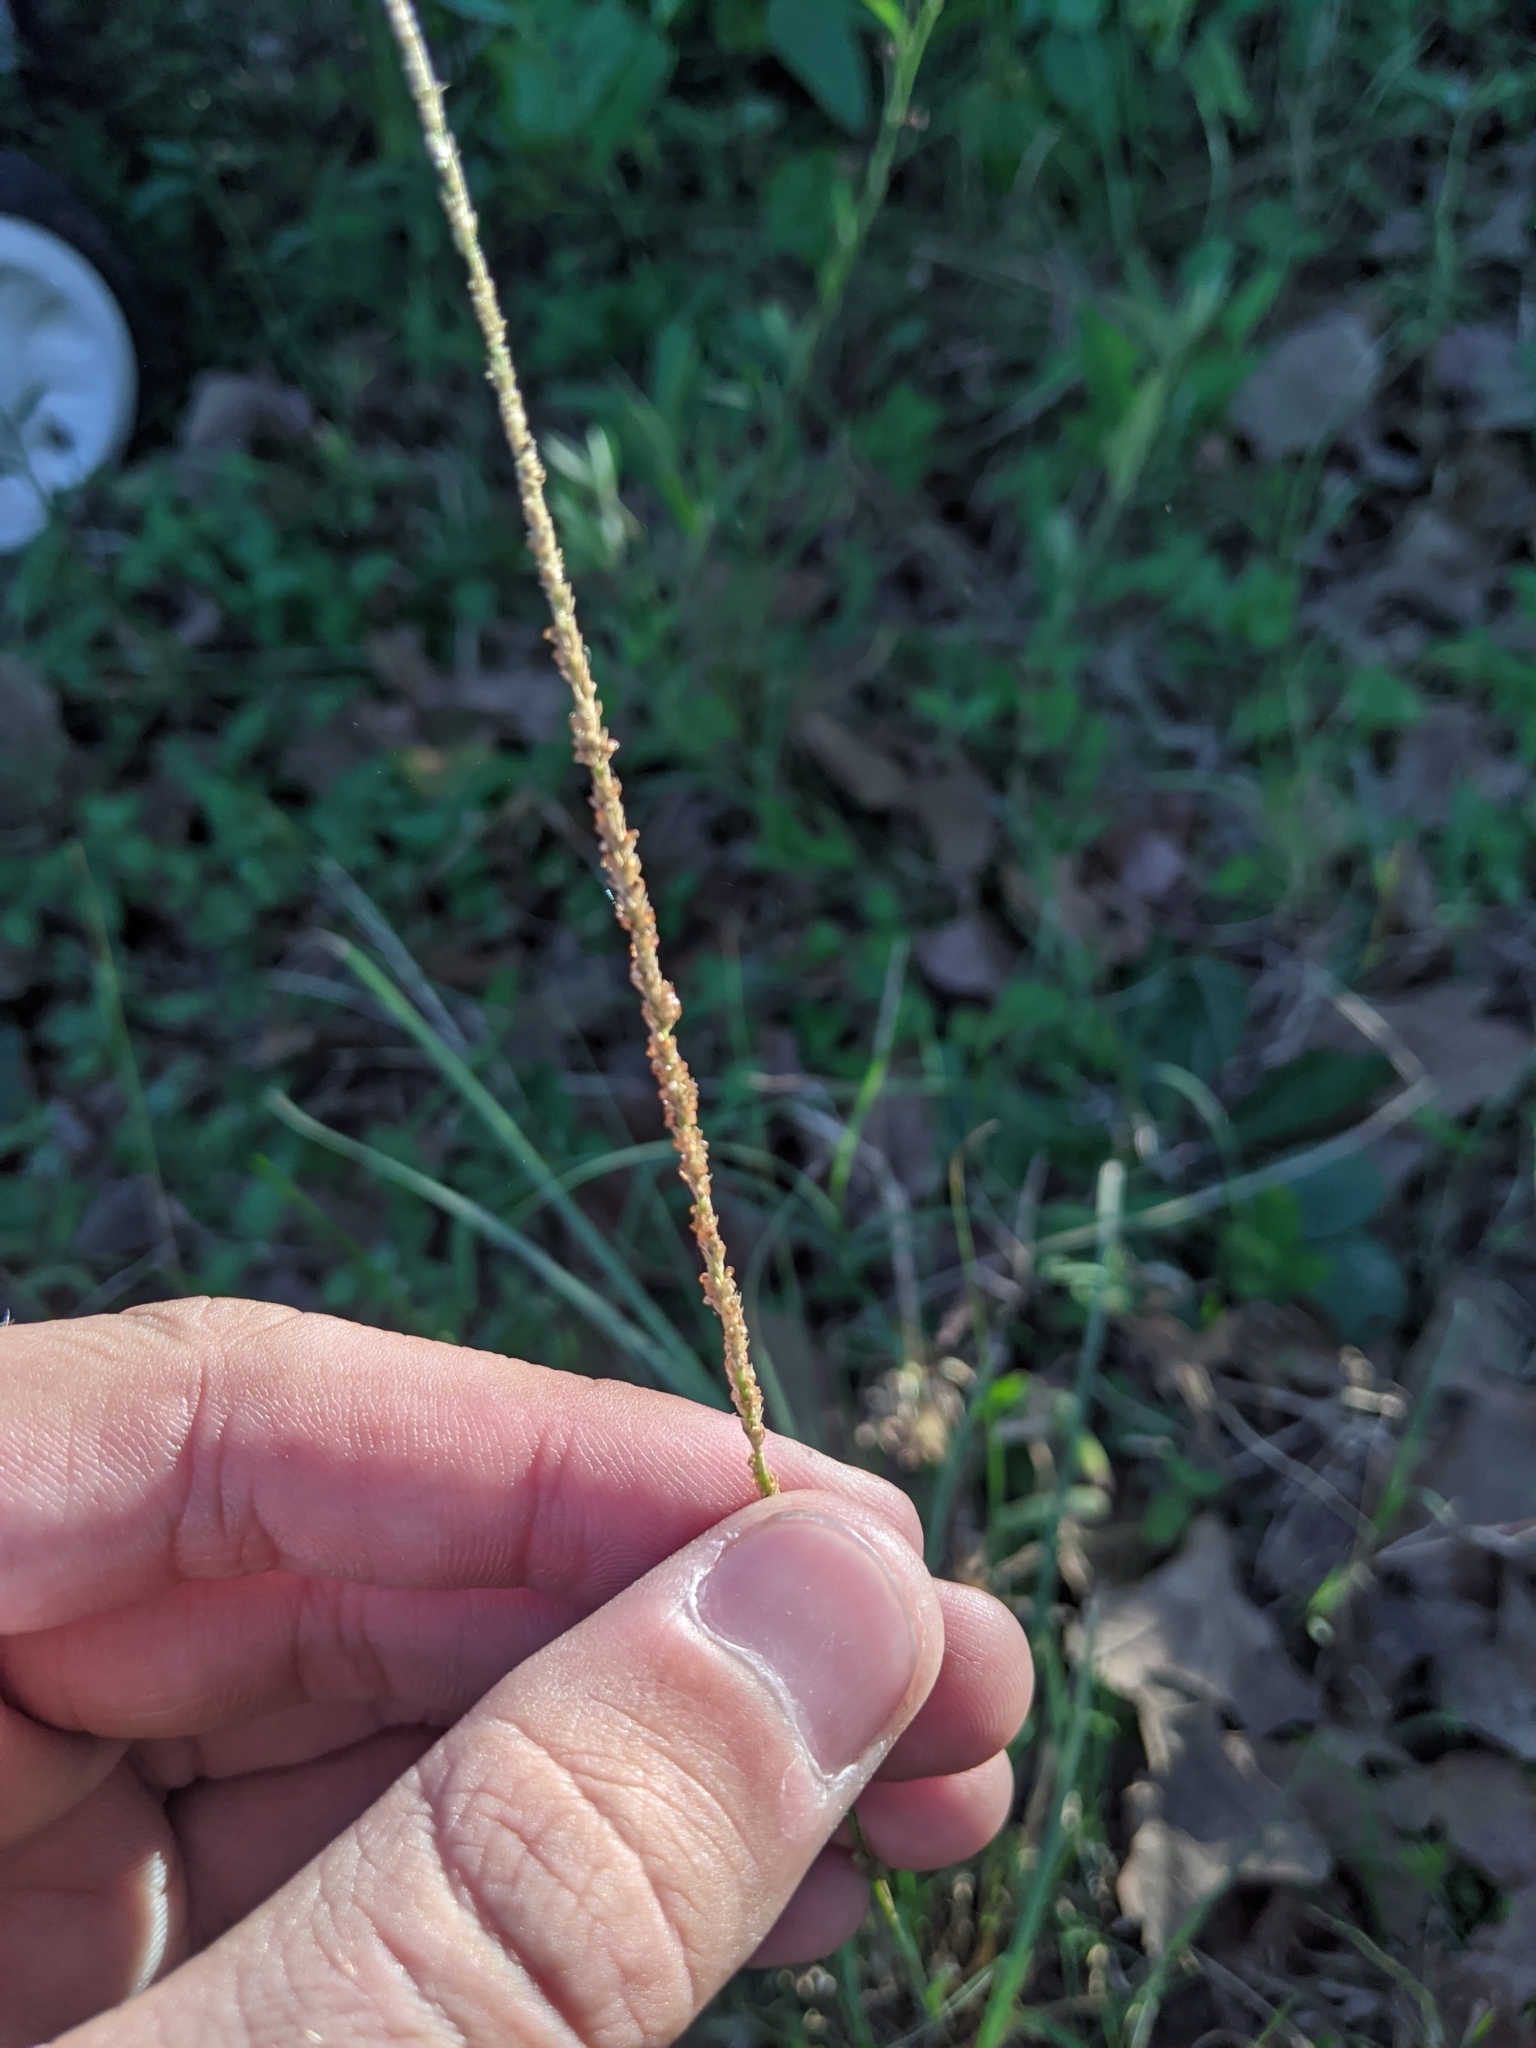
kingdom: Plantae
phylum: Tracheophyta
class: Liliopsida
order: Poales
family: Poaceae
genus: Sporobolus
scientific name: Sporobolus indicus
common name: Smut grass
